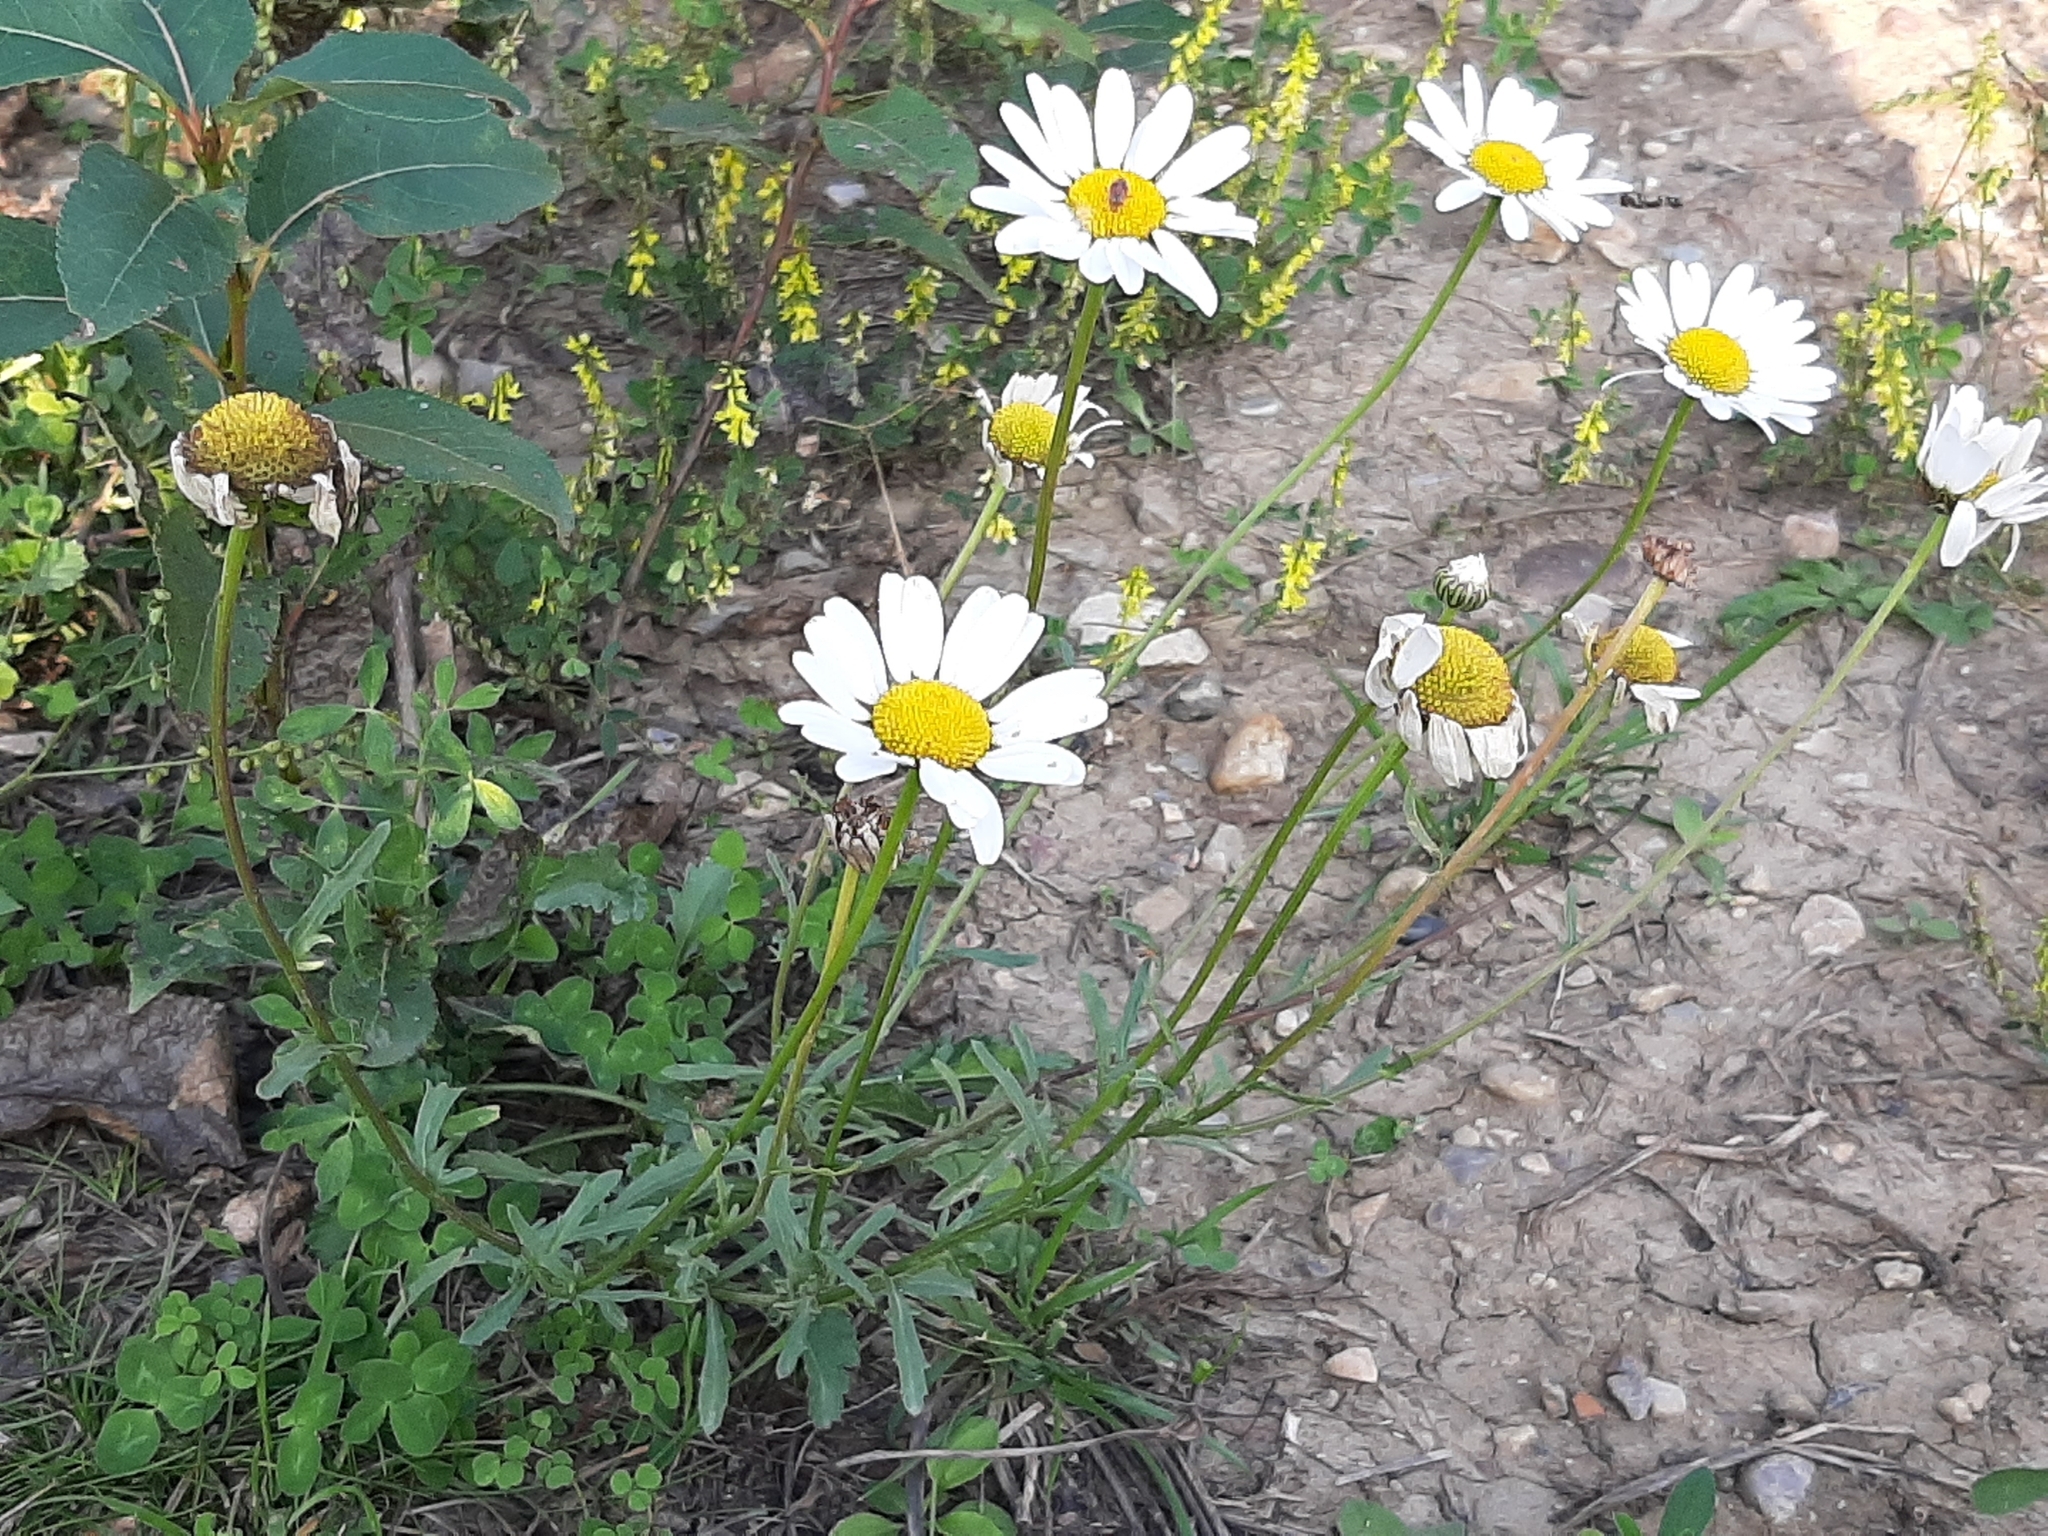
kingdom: Plantae
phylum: Tracheophyta
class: Magnoliopsida
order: Asterales
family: Asteraceae
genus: Leucanthemum
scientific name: Leucanthemum vulgare
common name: Oxeye daisy
